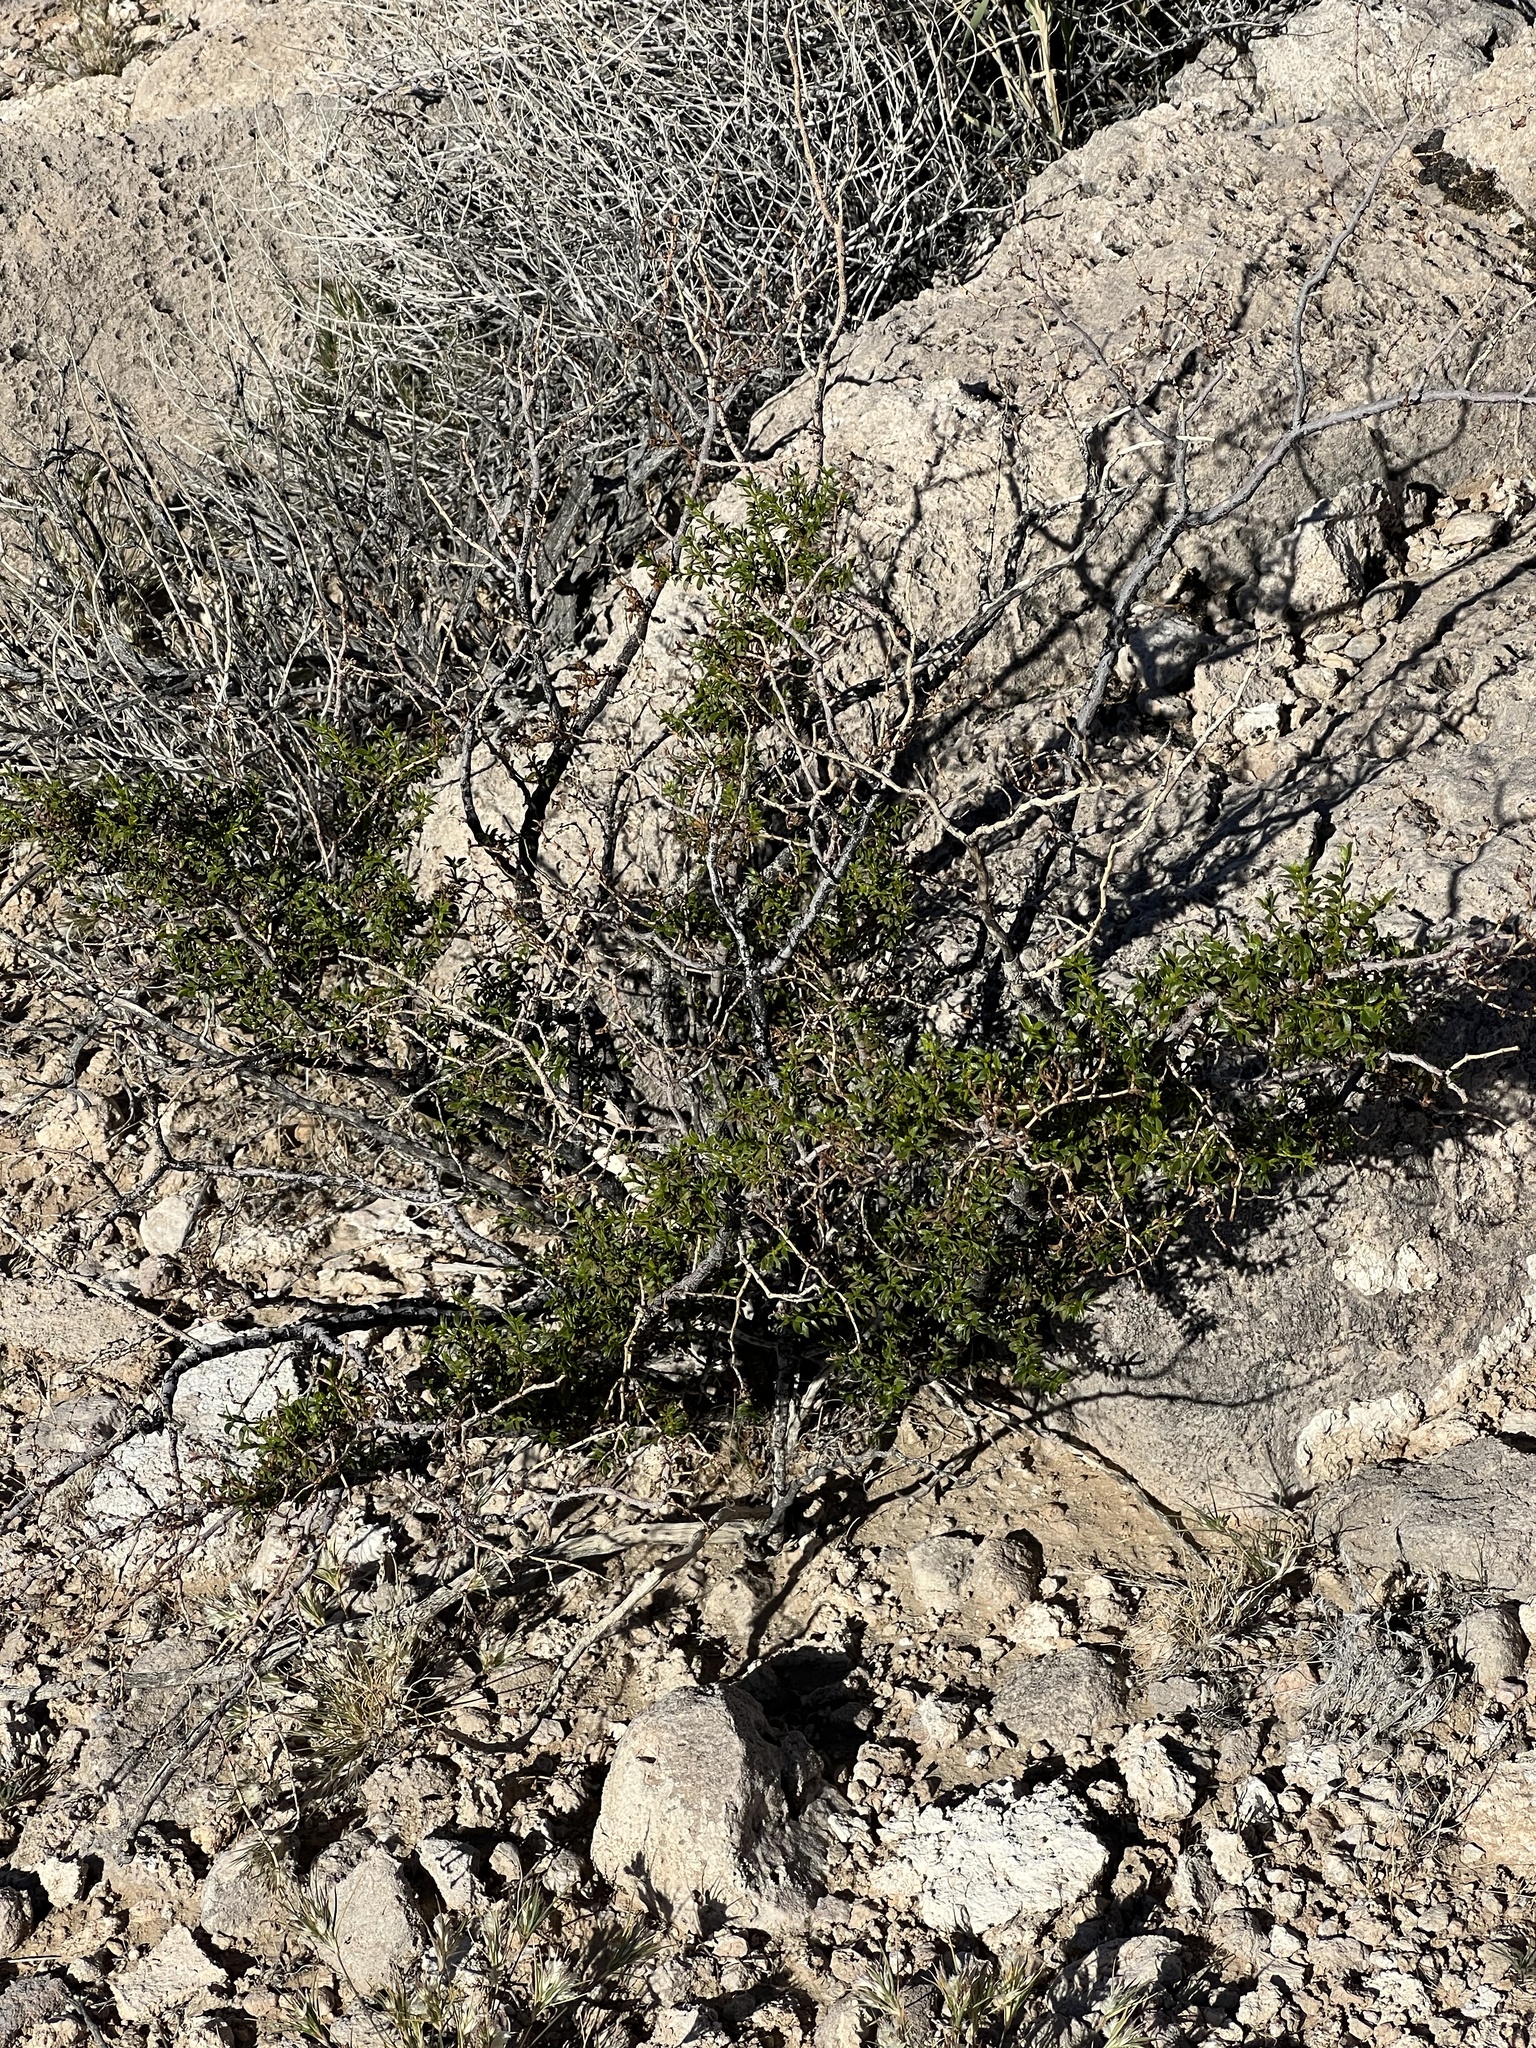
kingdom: Plantae
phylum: Tracheophyta
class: Magnoliopsida
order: Zygophyllales
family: Zygophyllaceae
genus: Larrea
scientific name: Larrea tridentata
